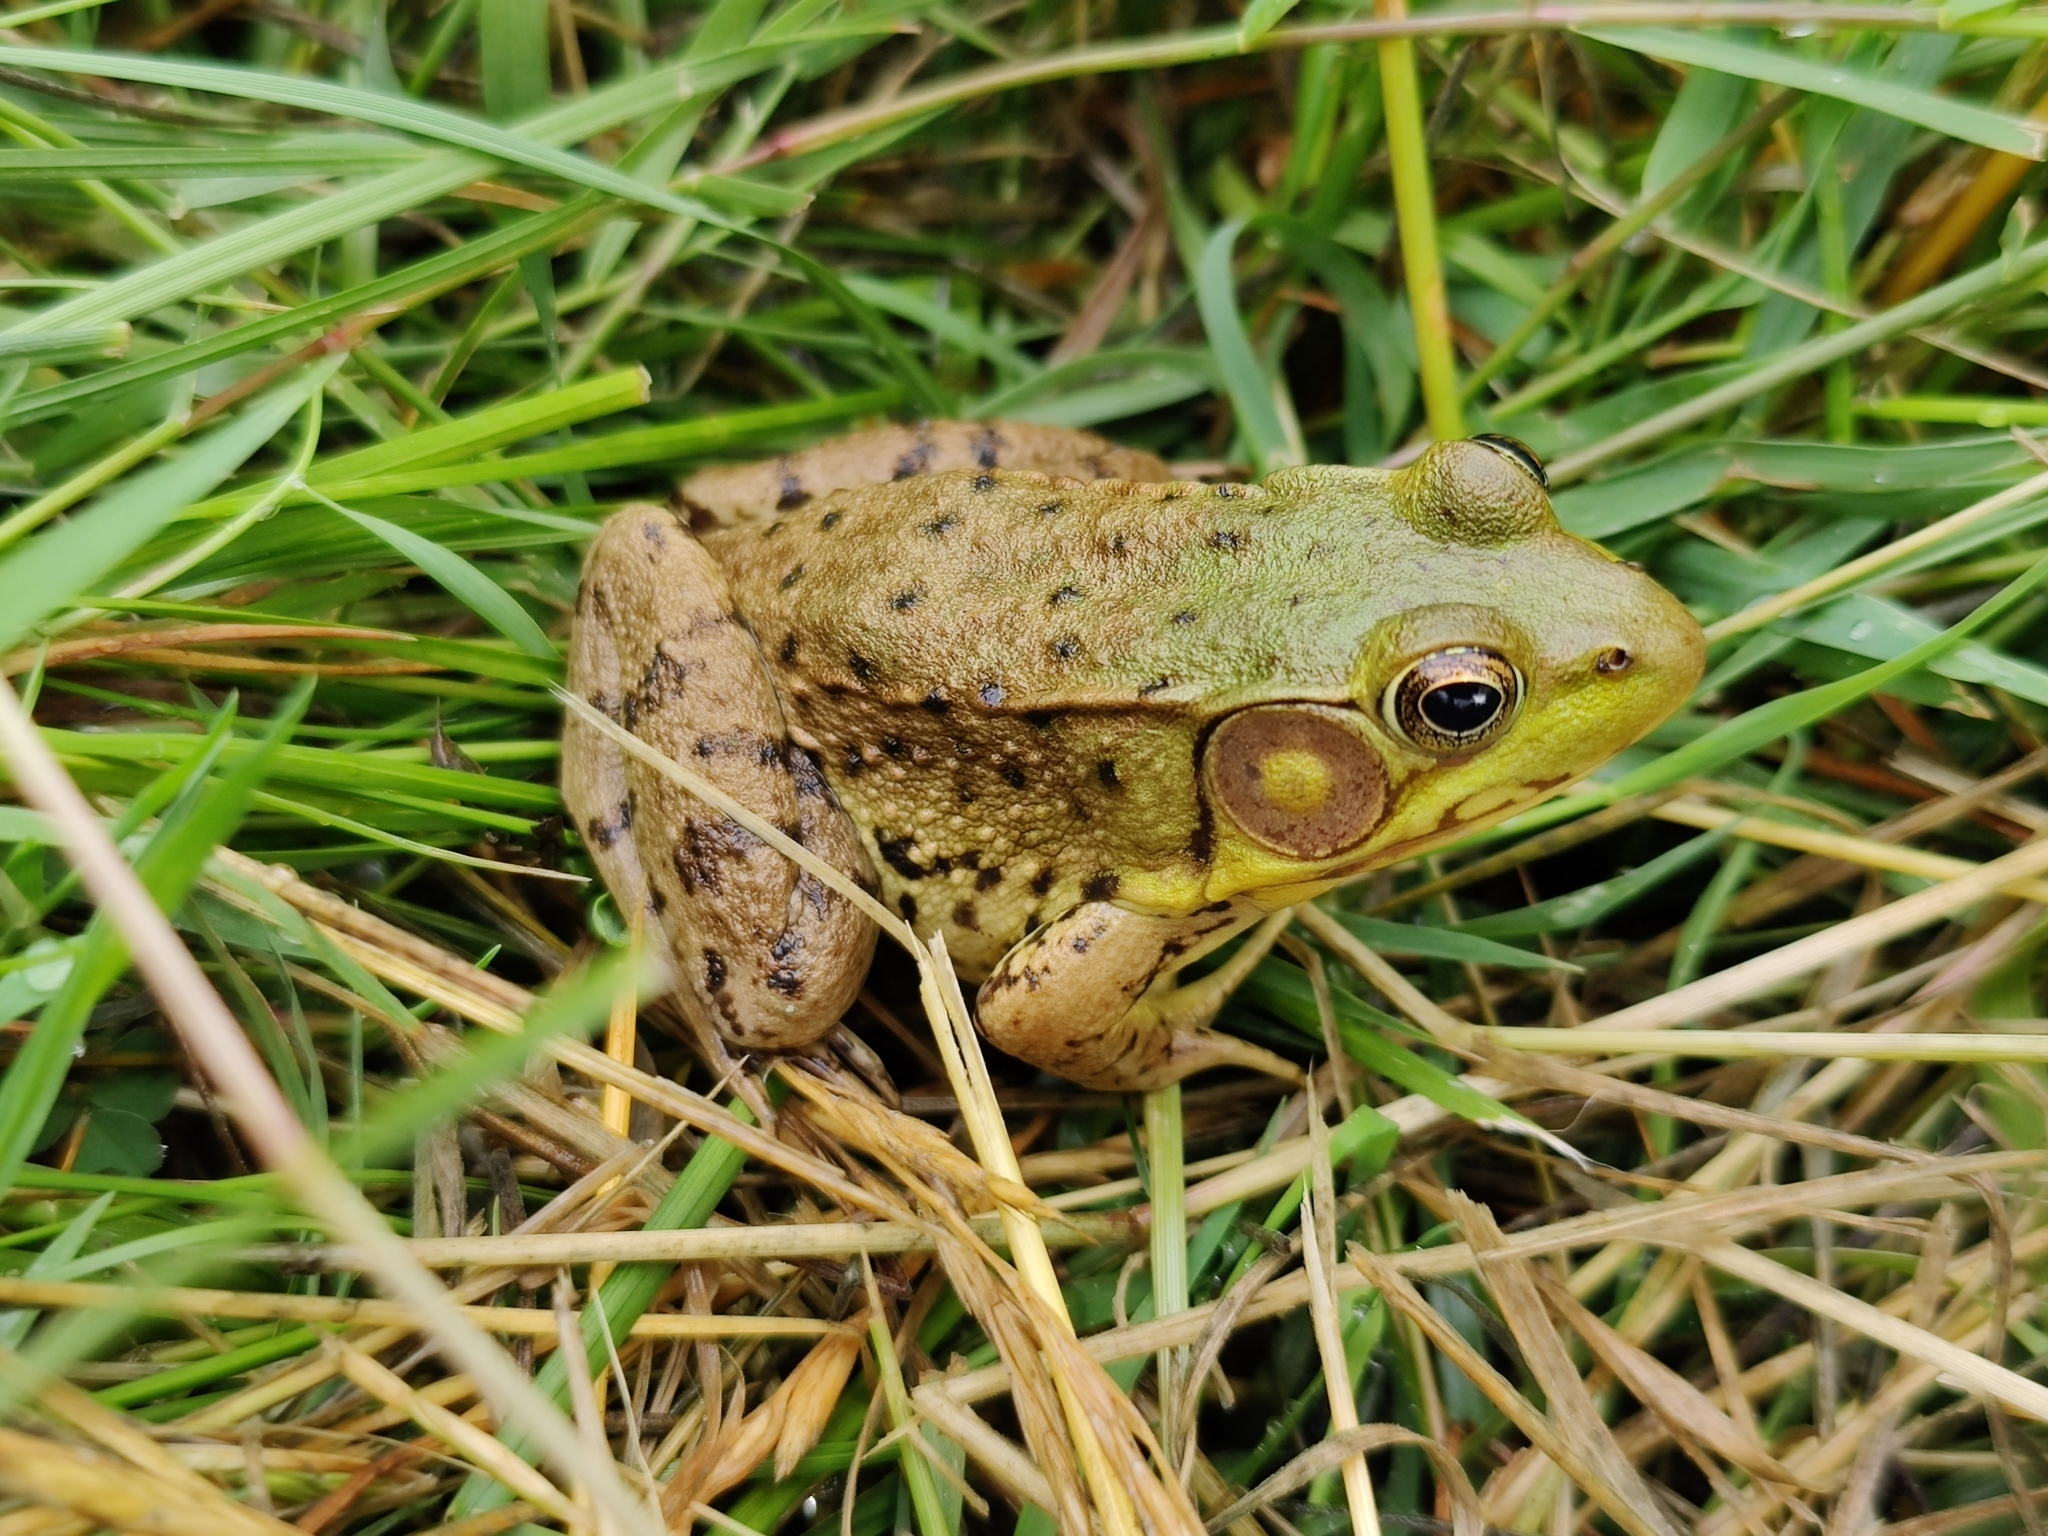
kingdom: Animalia
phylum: Chordata
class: Amphibia
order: Anura
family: Ranidae
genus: Lithobates
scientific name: Lithobates clamitans
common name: Green frog
